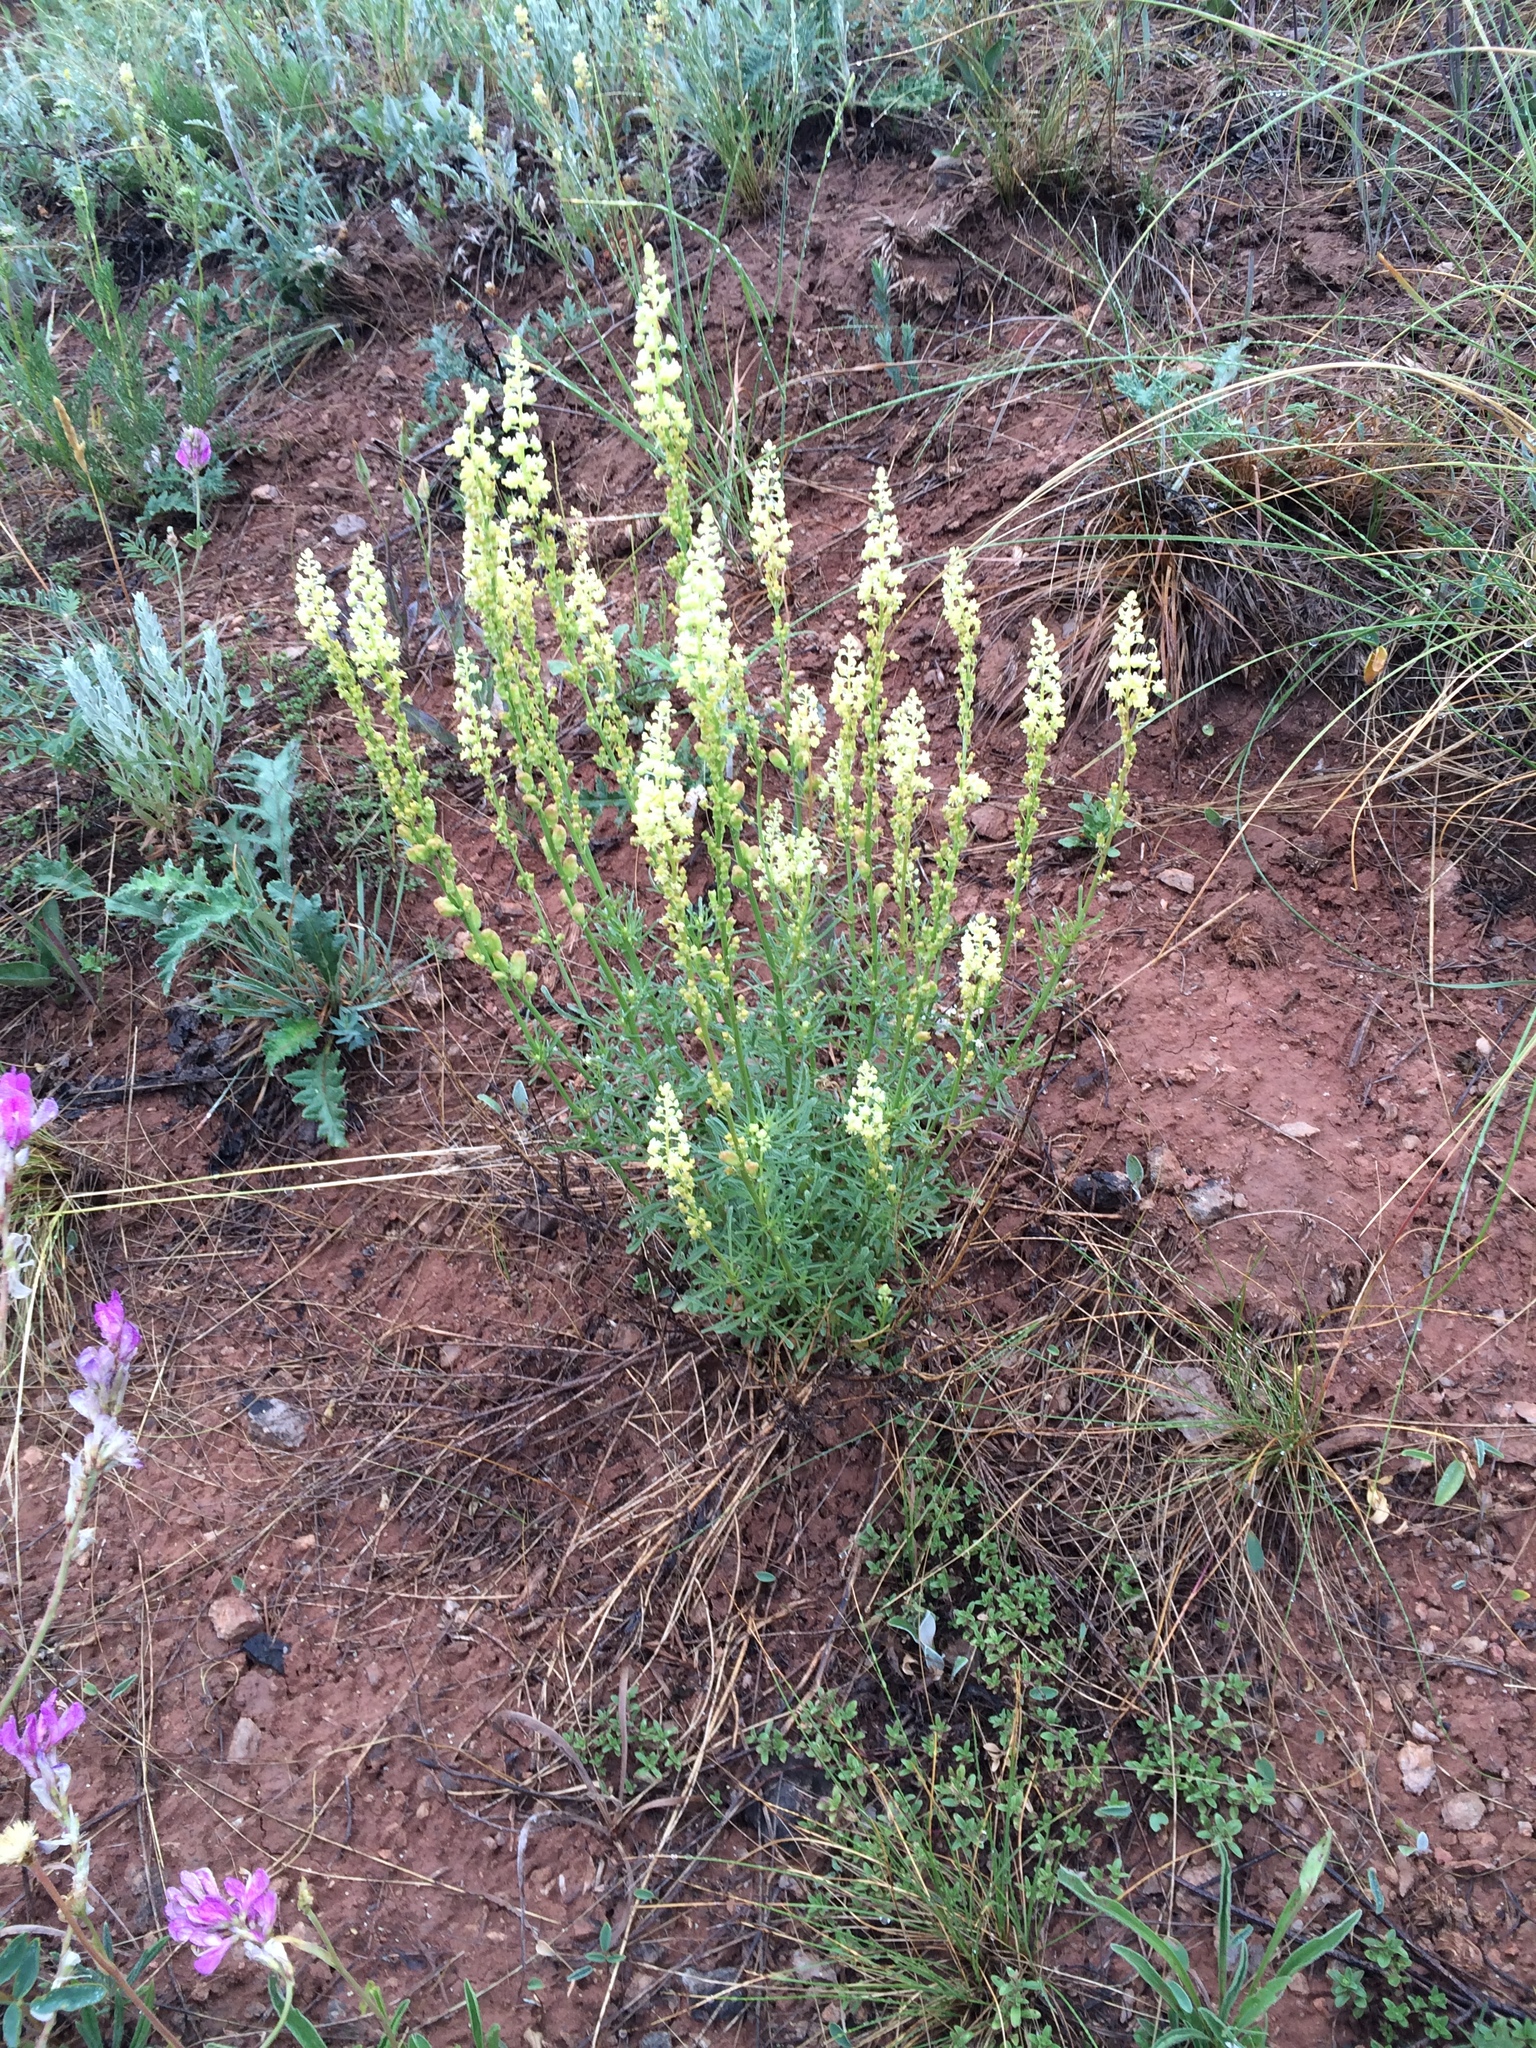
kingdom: Plantae
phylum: Tracheophyta
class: Magnoliopsida
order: Brassicales
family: Resedaceae
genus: Reseda
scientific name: Reseda lutea
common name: Wild mignonette
